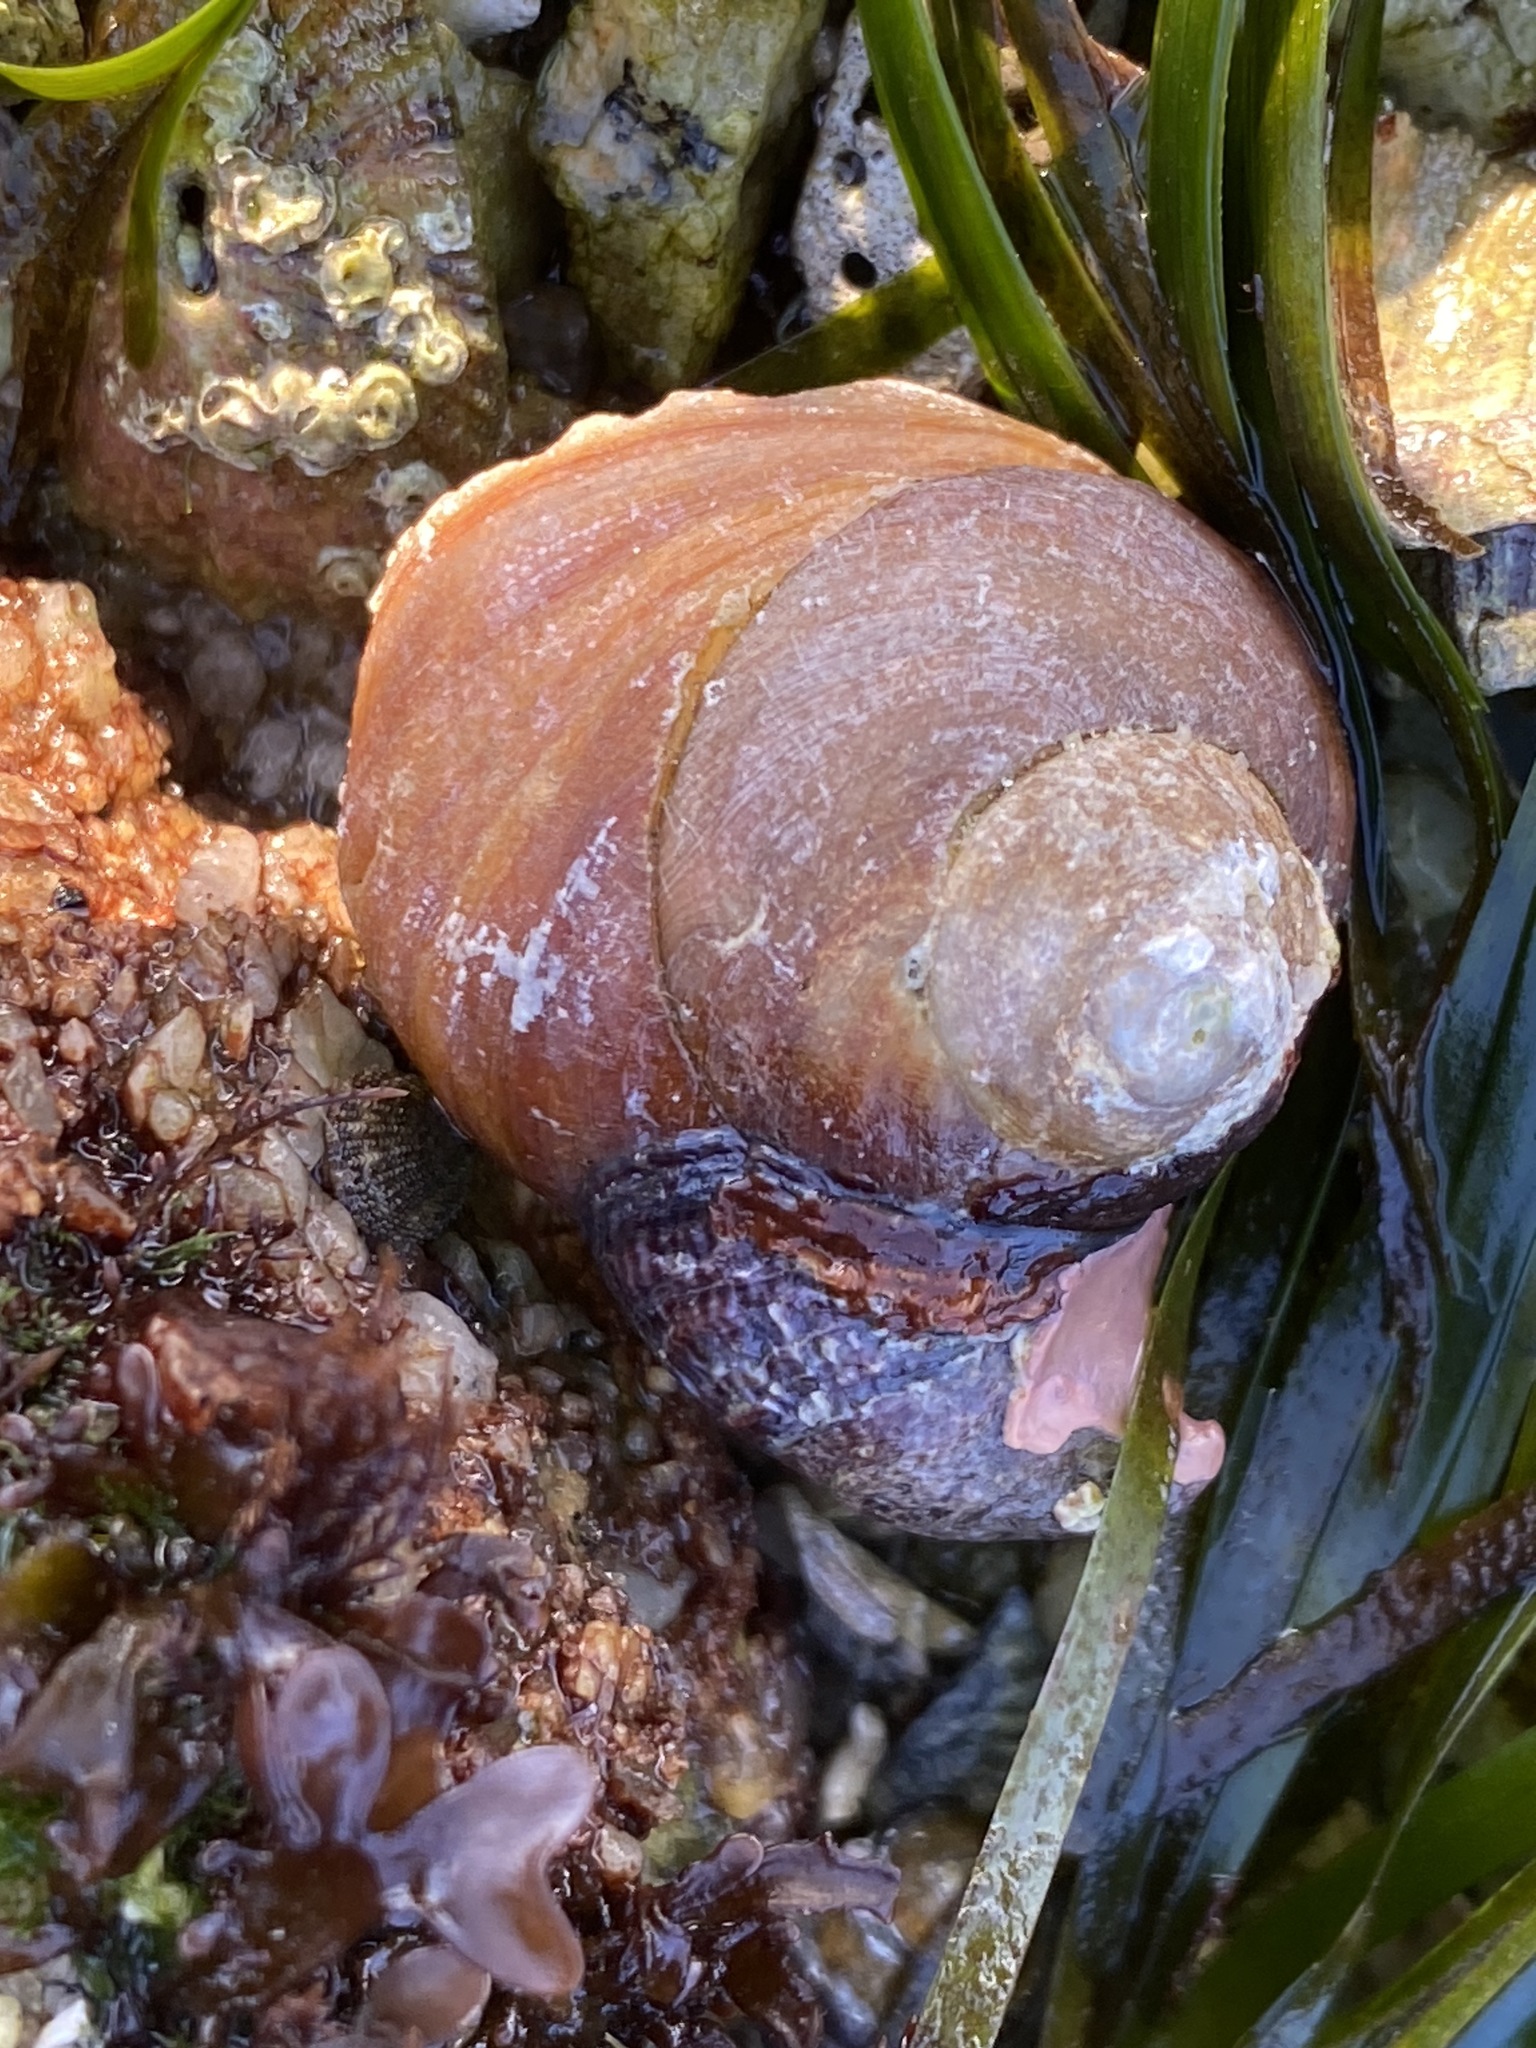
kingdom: Animalia
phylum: Mollusca
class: Gastropoda
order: Trochida
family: Tegulidae
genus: Tegula
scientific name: Tegula brunnea
